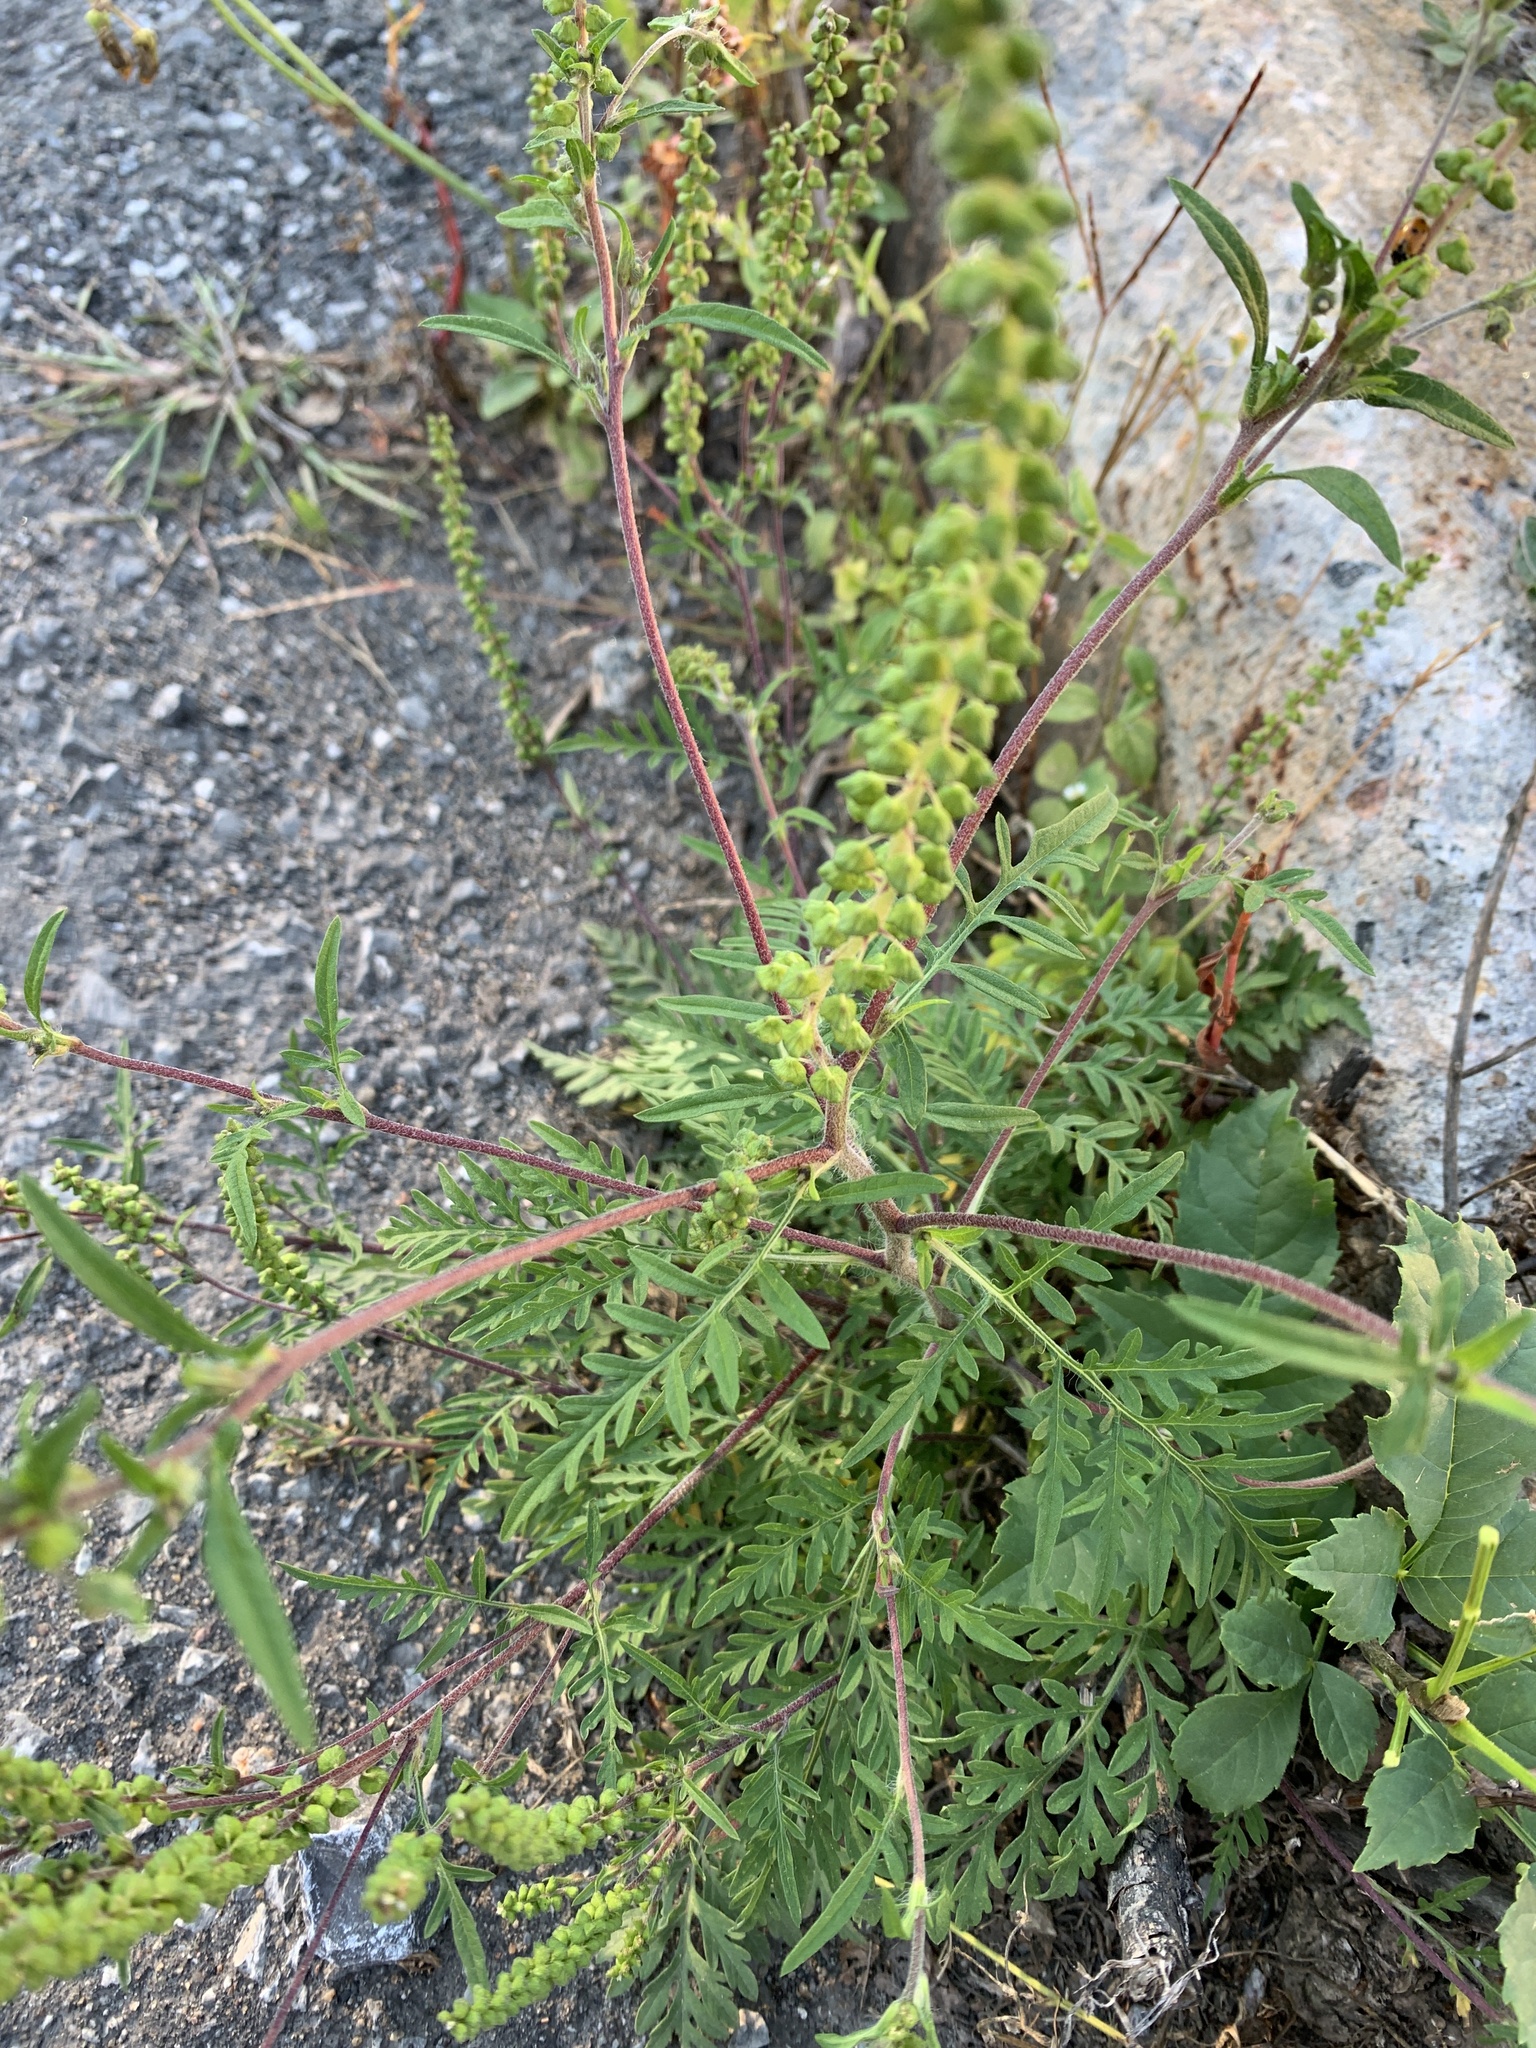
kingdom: Plantae
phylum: Tracheophyta
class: Magnoliopsida
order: Asterales
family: Asteraceae
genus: Ambrosia
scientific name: Ambrosia artemisiifolia
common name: Annual ragweed
